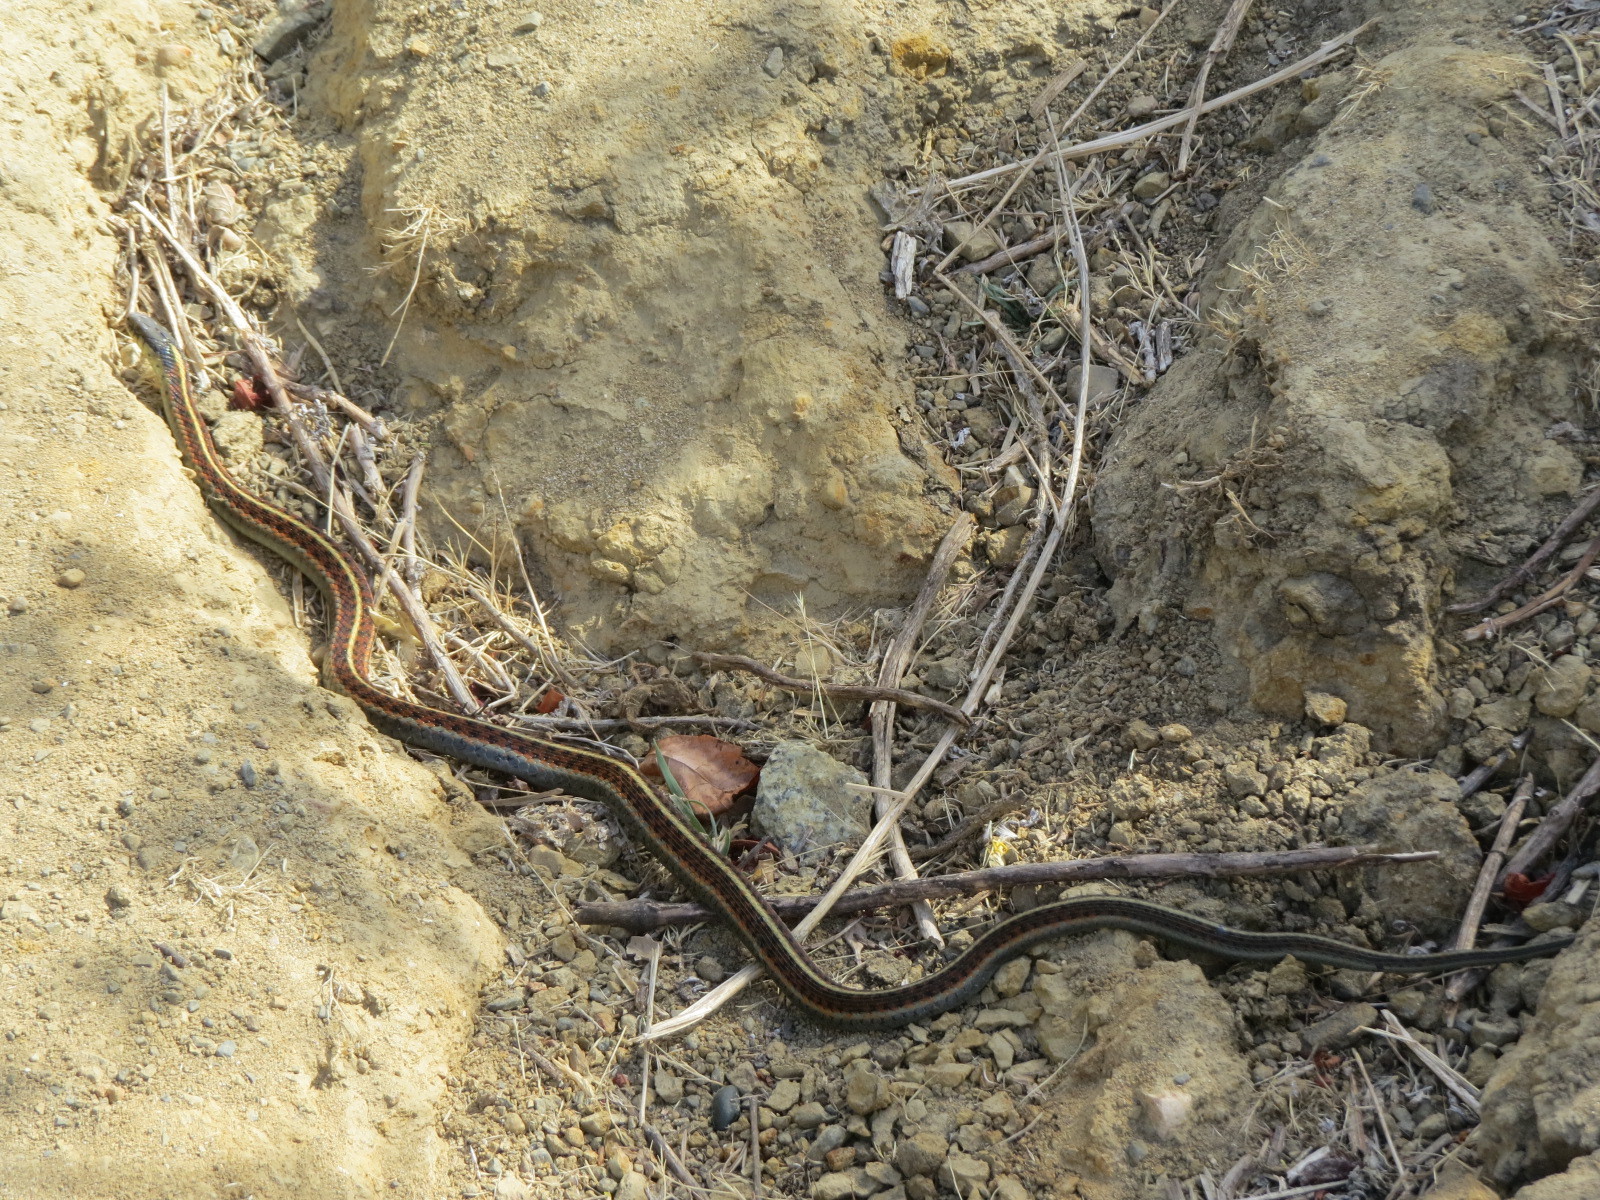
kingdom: Animalia
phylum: Chordata
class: Squamata
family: Colubridae
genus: Thamnophis
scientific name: Thamnophis elegans
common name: Western terrestrial garter snake
